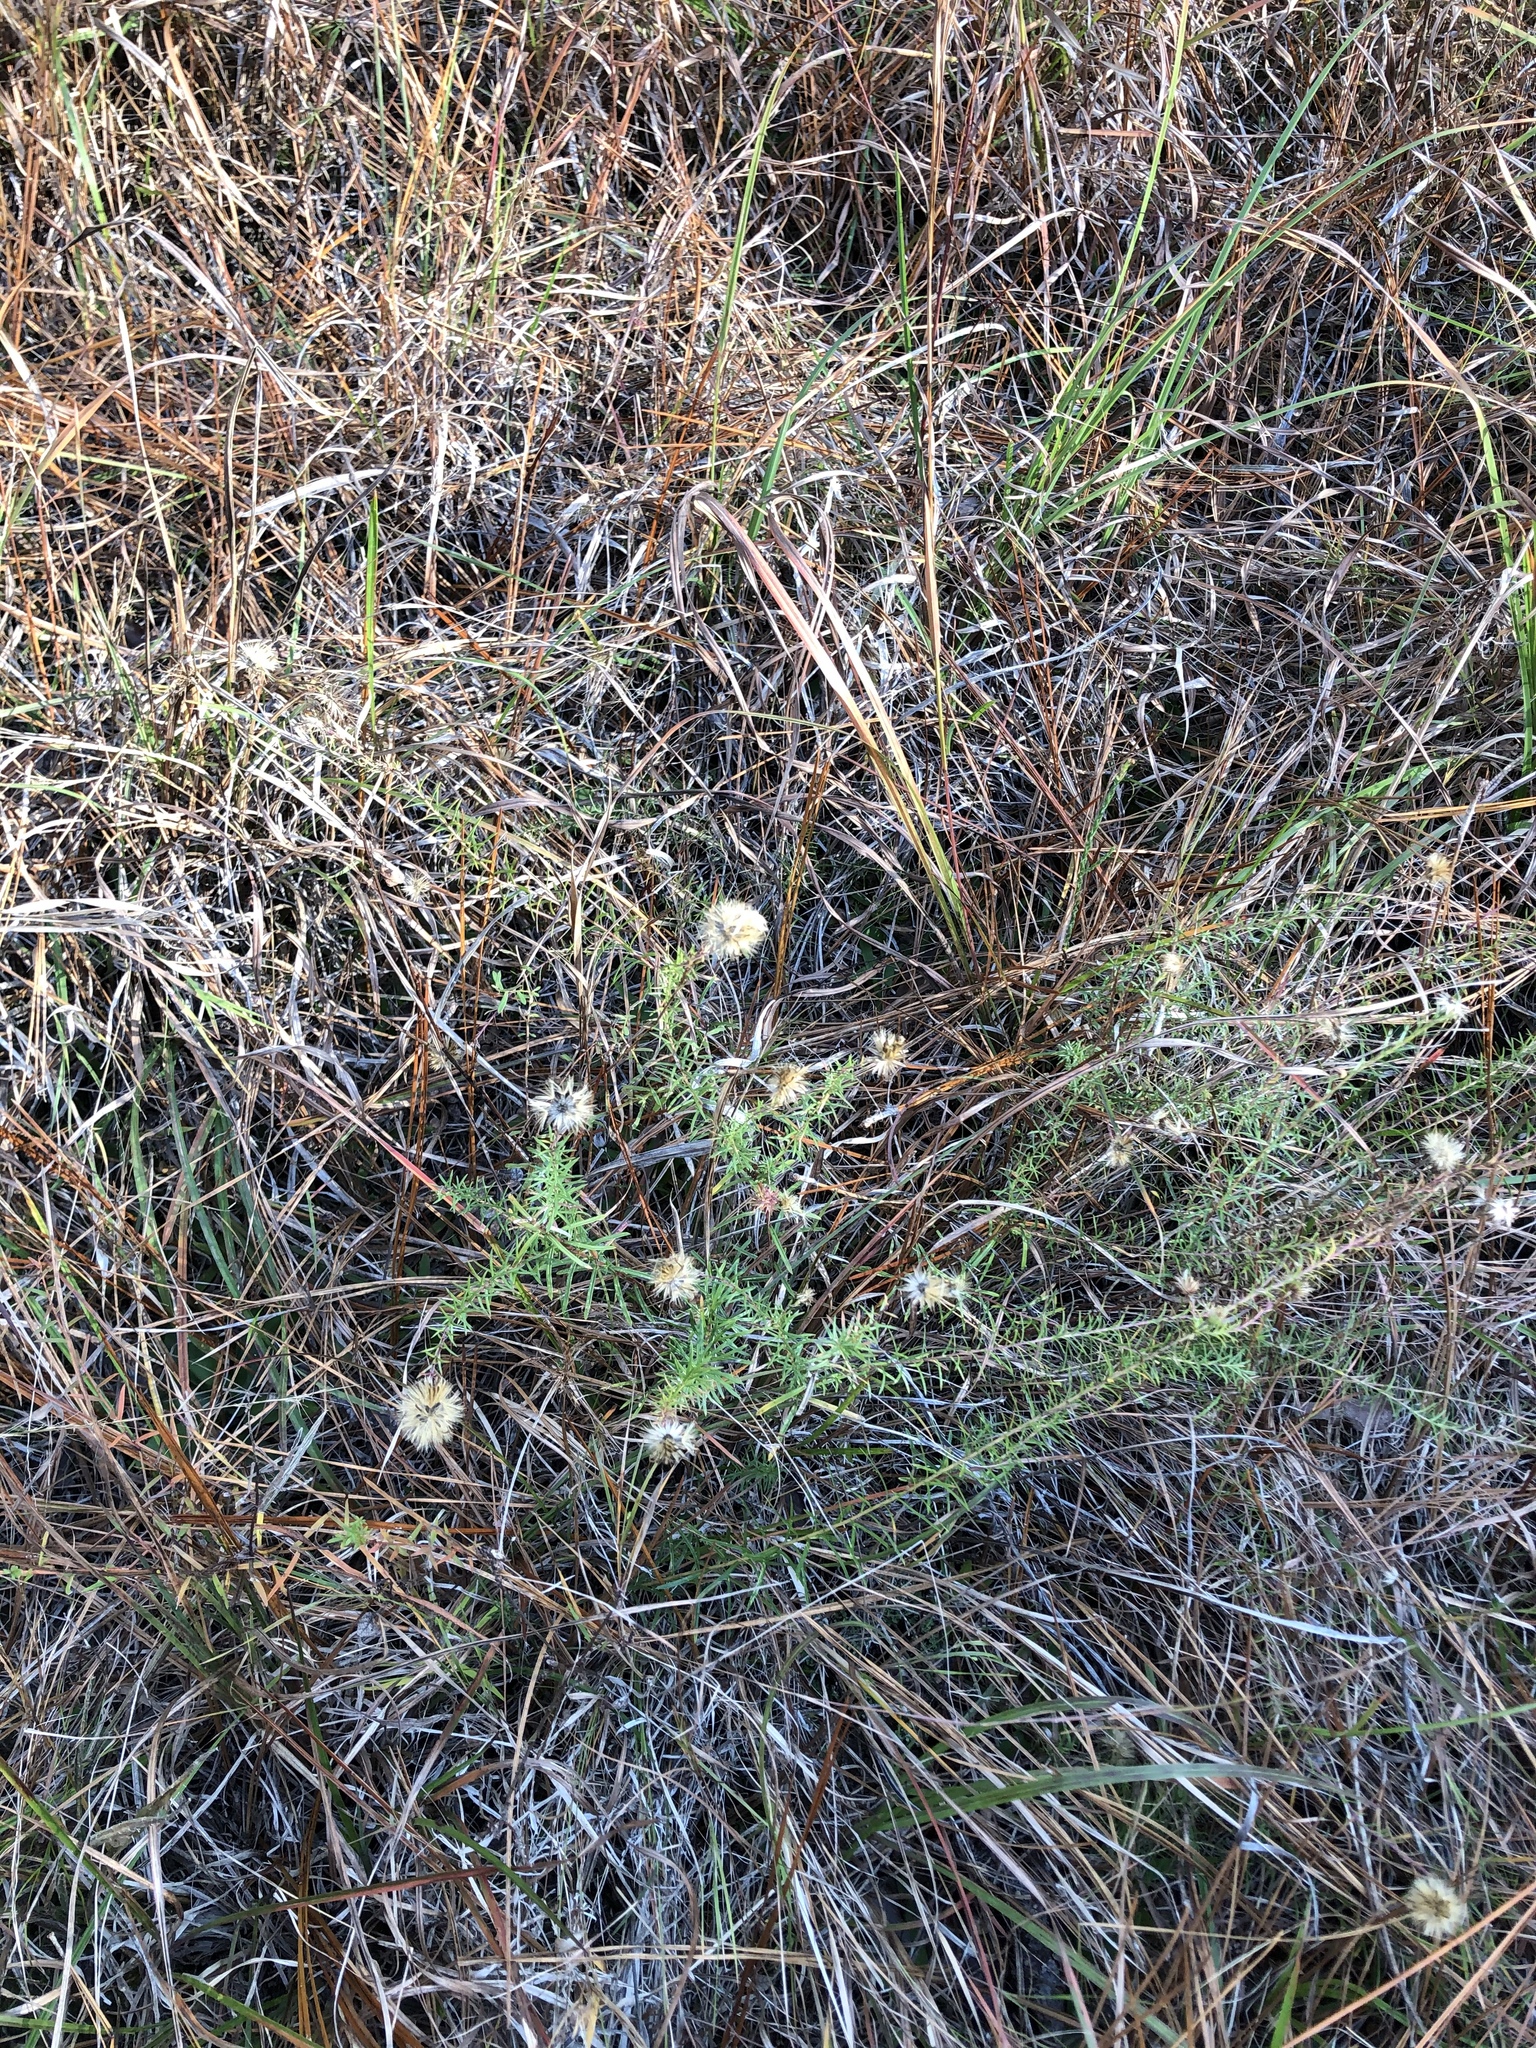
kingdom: Plantae
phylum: Tracheophyta
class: Magnoliopsida
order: Asterales
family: Asteraceae
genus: Ionactis
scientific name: Ionactis repens
